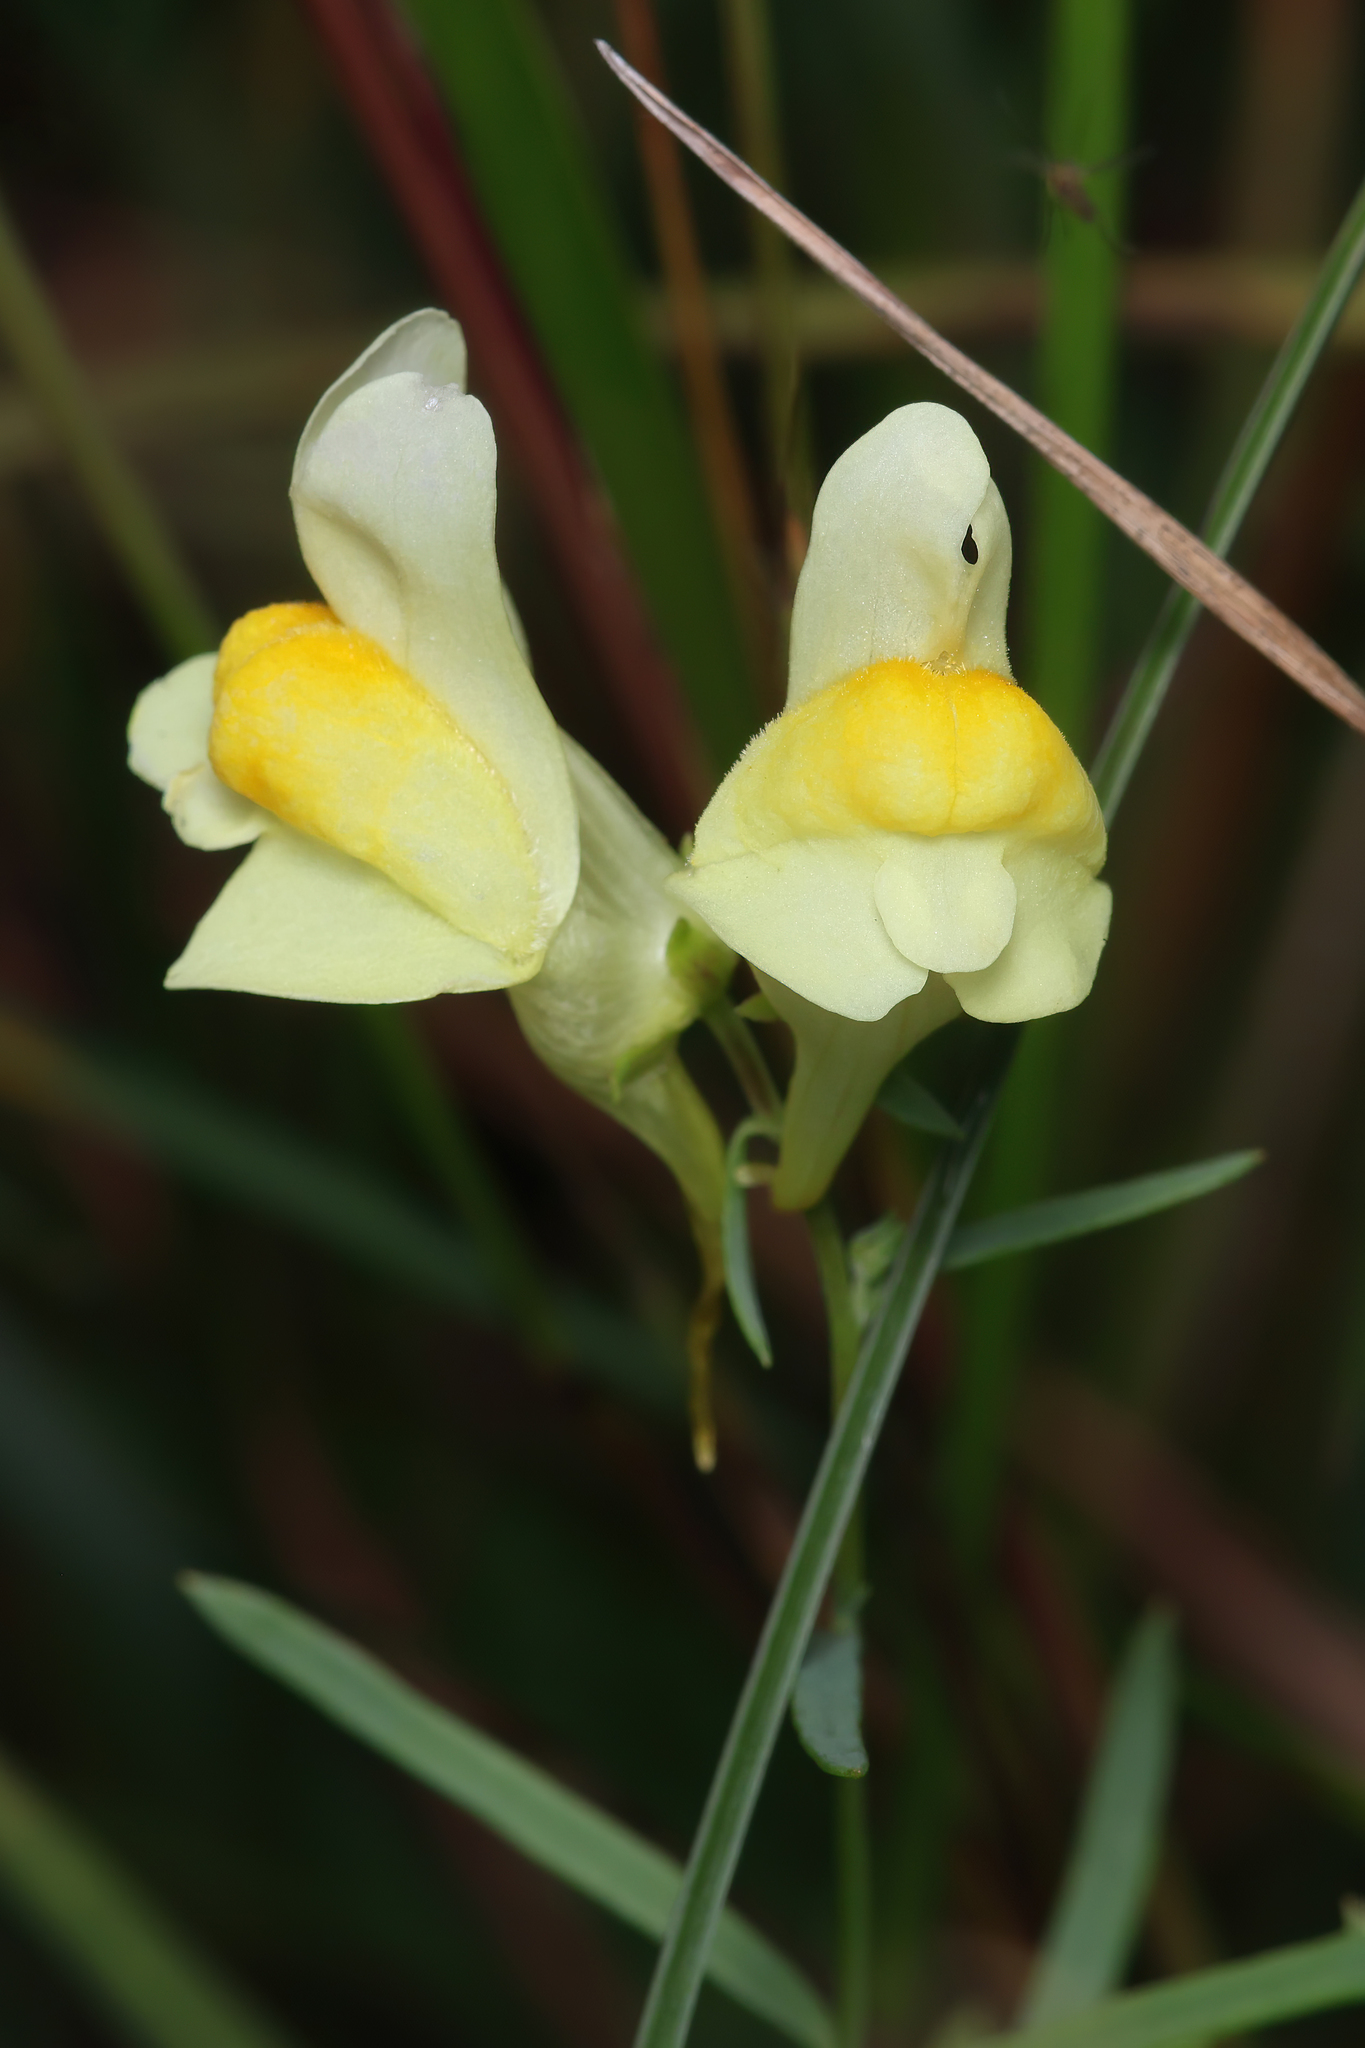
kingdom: Plantae
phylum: Tracheophyta
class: Magnoliopsida
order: Lamiales
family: Plantaginaceae
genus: Linaria
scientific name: Linaria vulgaris
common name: Butter and eggs
